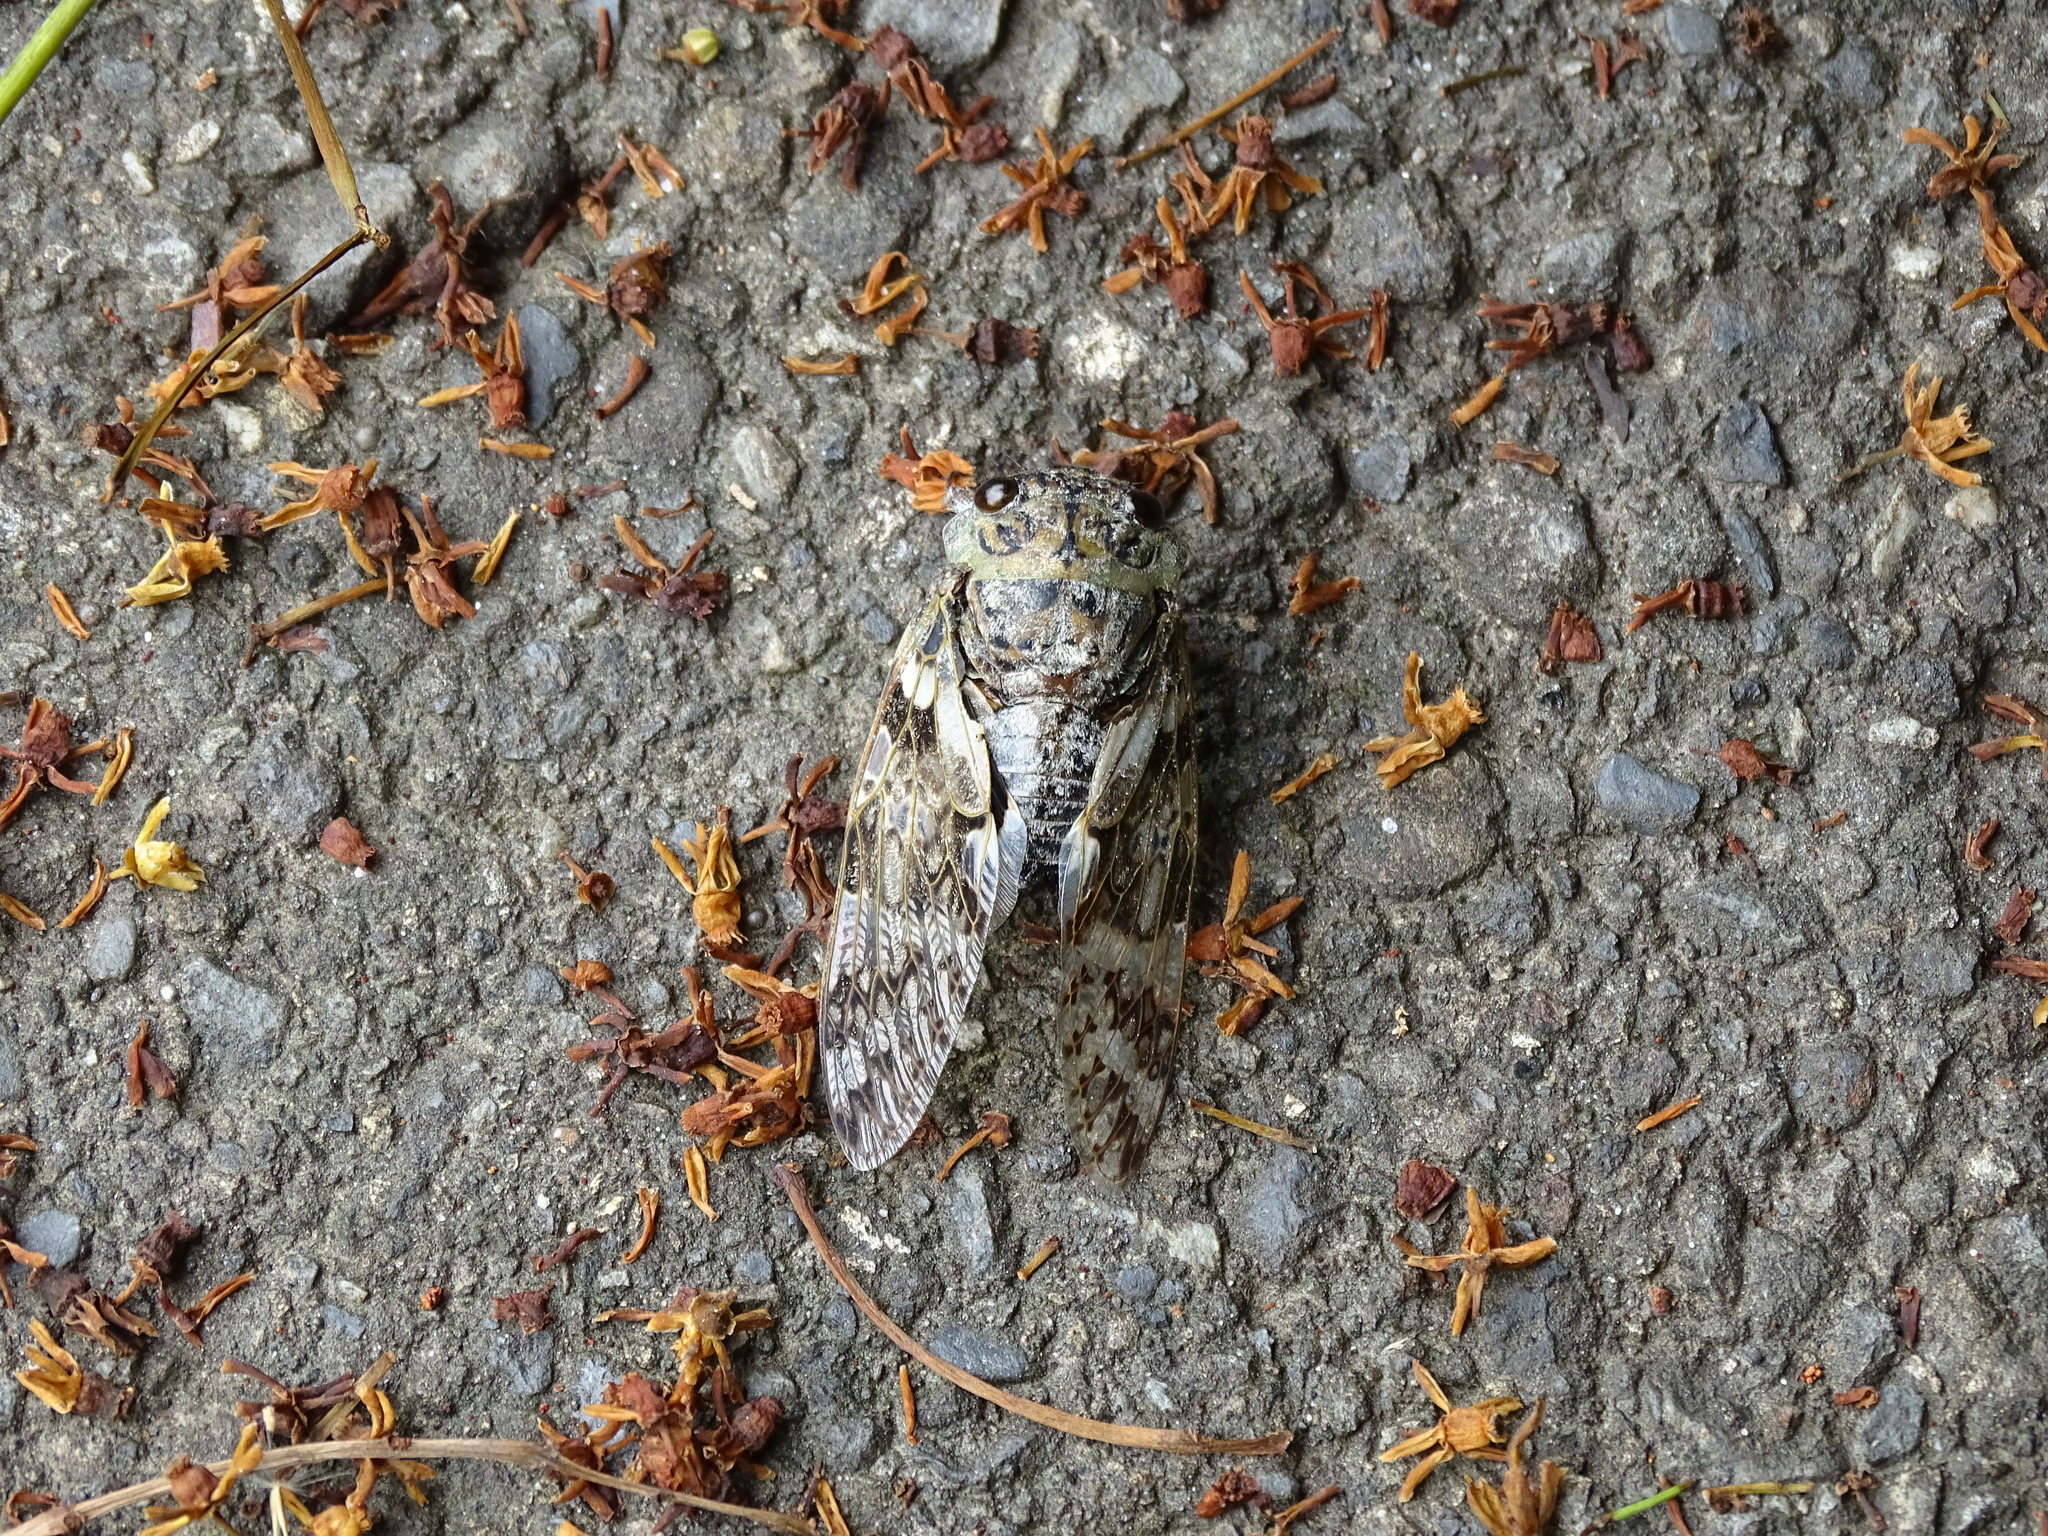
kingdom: Animalia
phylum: Arthropoda
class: Insecta
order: Hemiptera
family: Cicadidae
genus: Platypleura
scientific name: Platypleura takasagona
